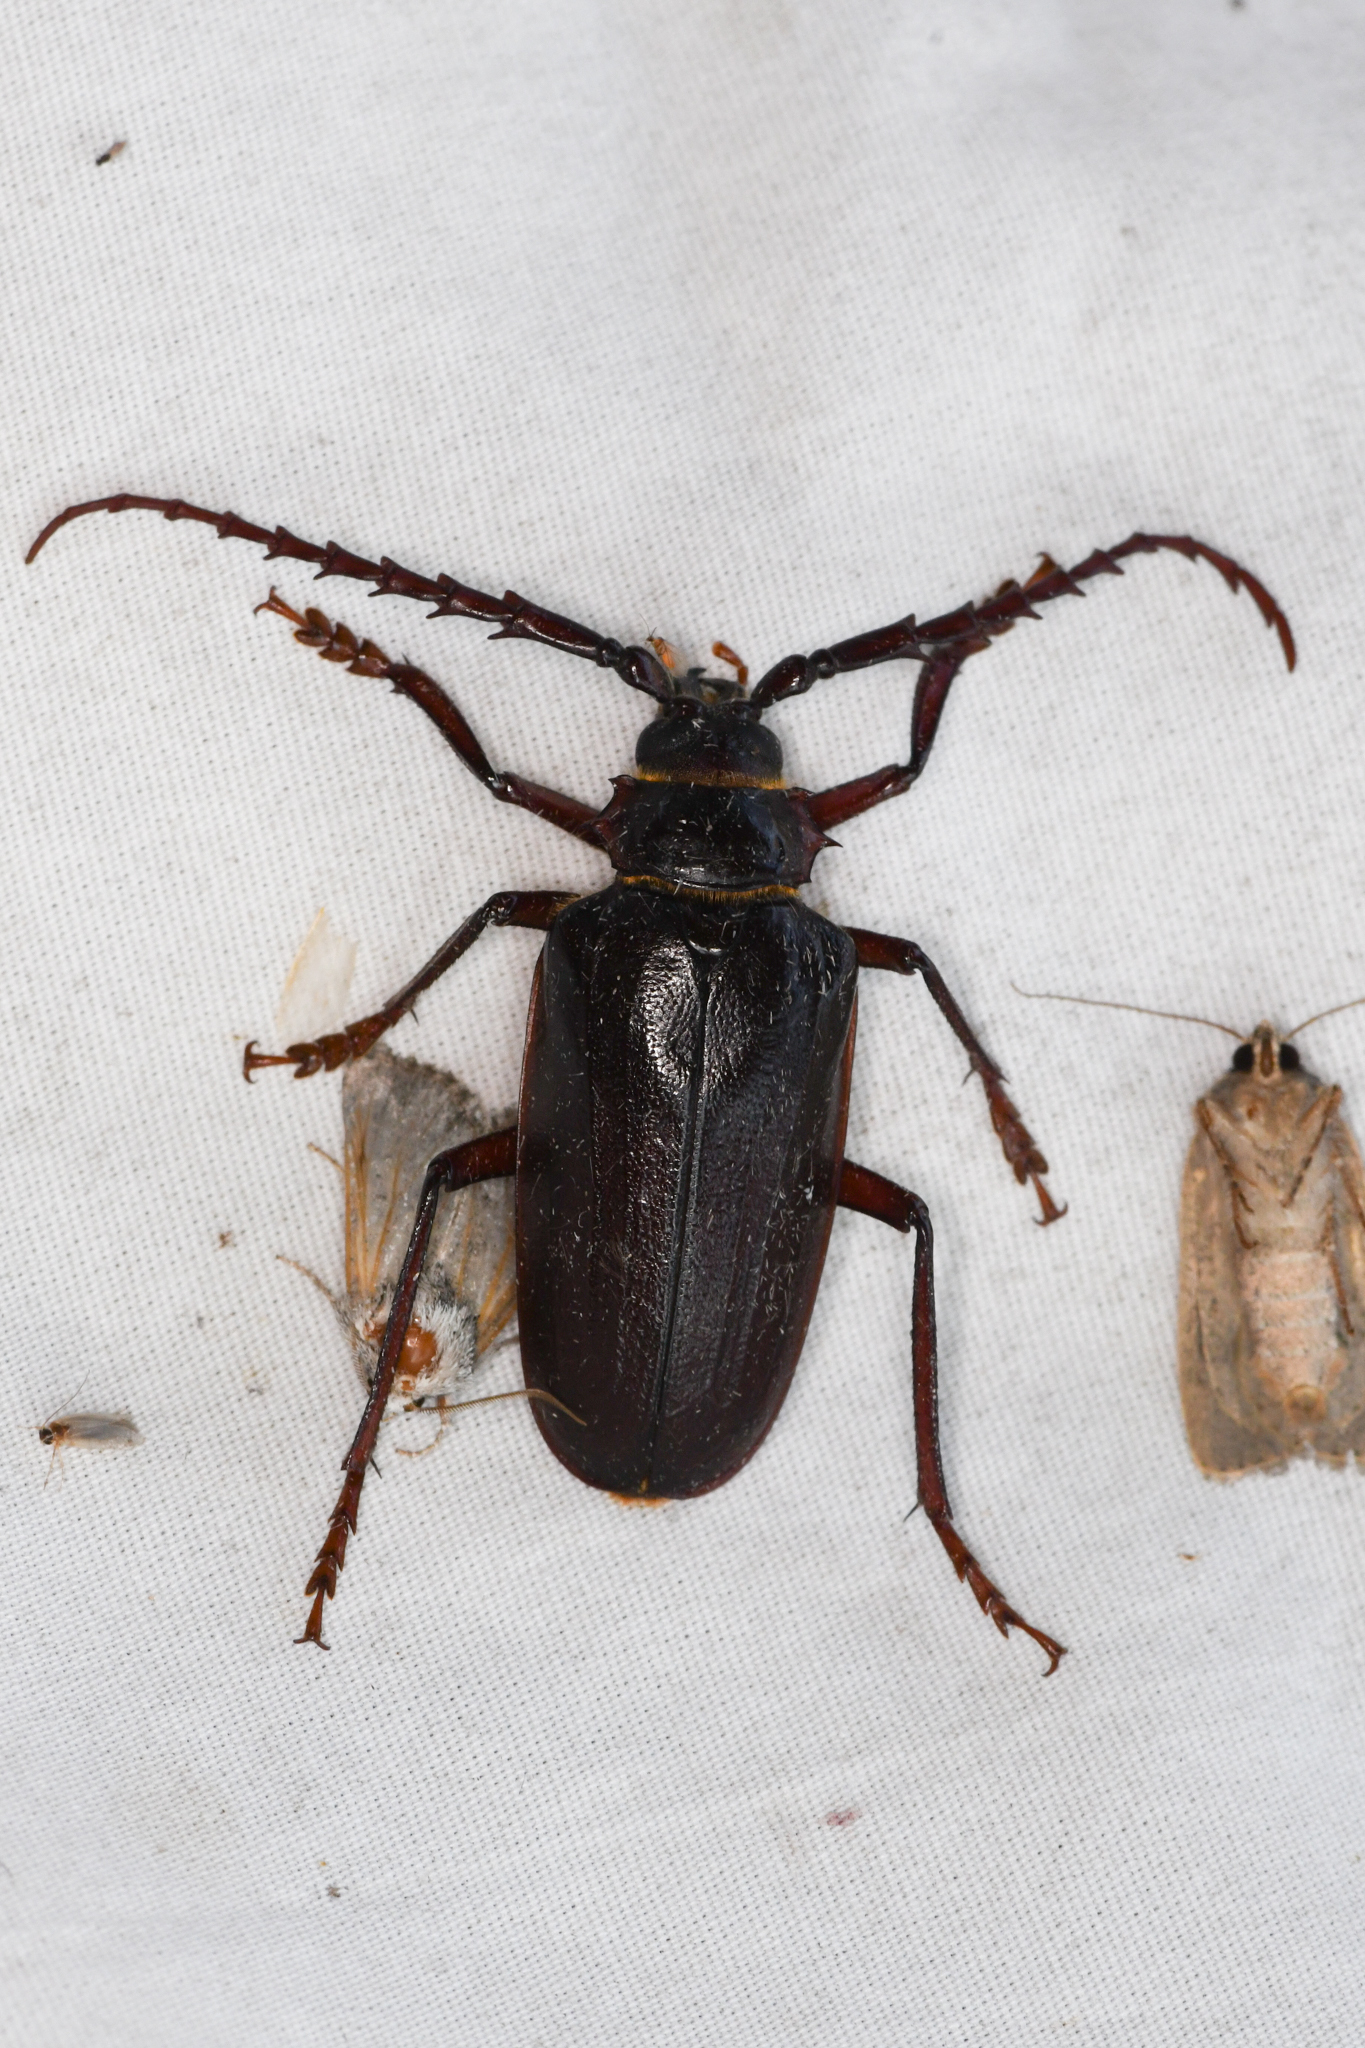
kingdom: Animalia
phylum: Arthropoda
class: Insecta
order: Coleoptera
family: Cerambycidae
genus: Prionus
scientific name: Prionus californicus
